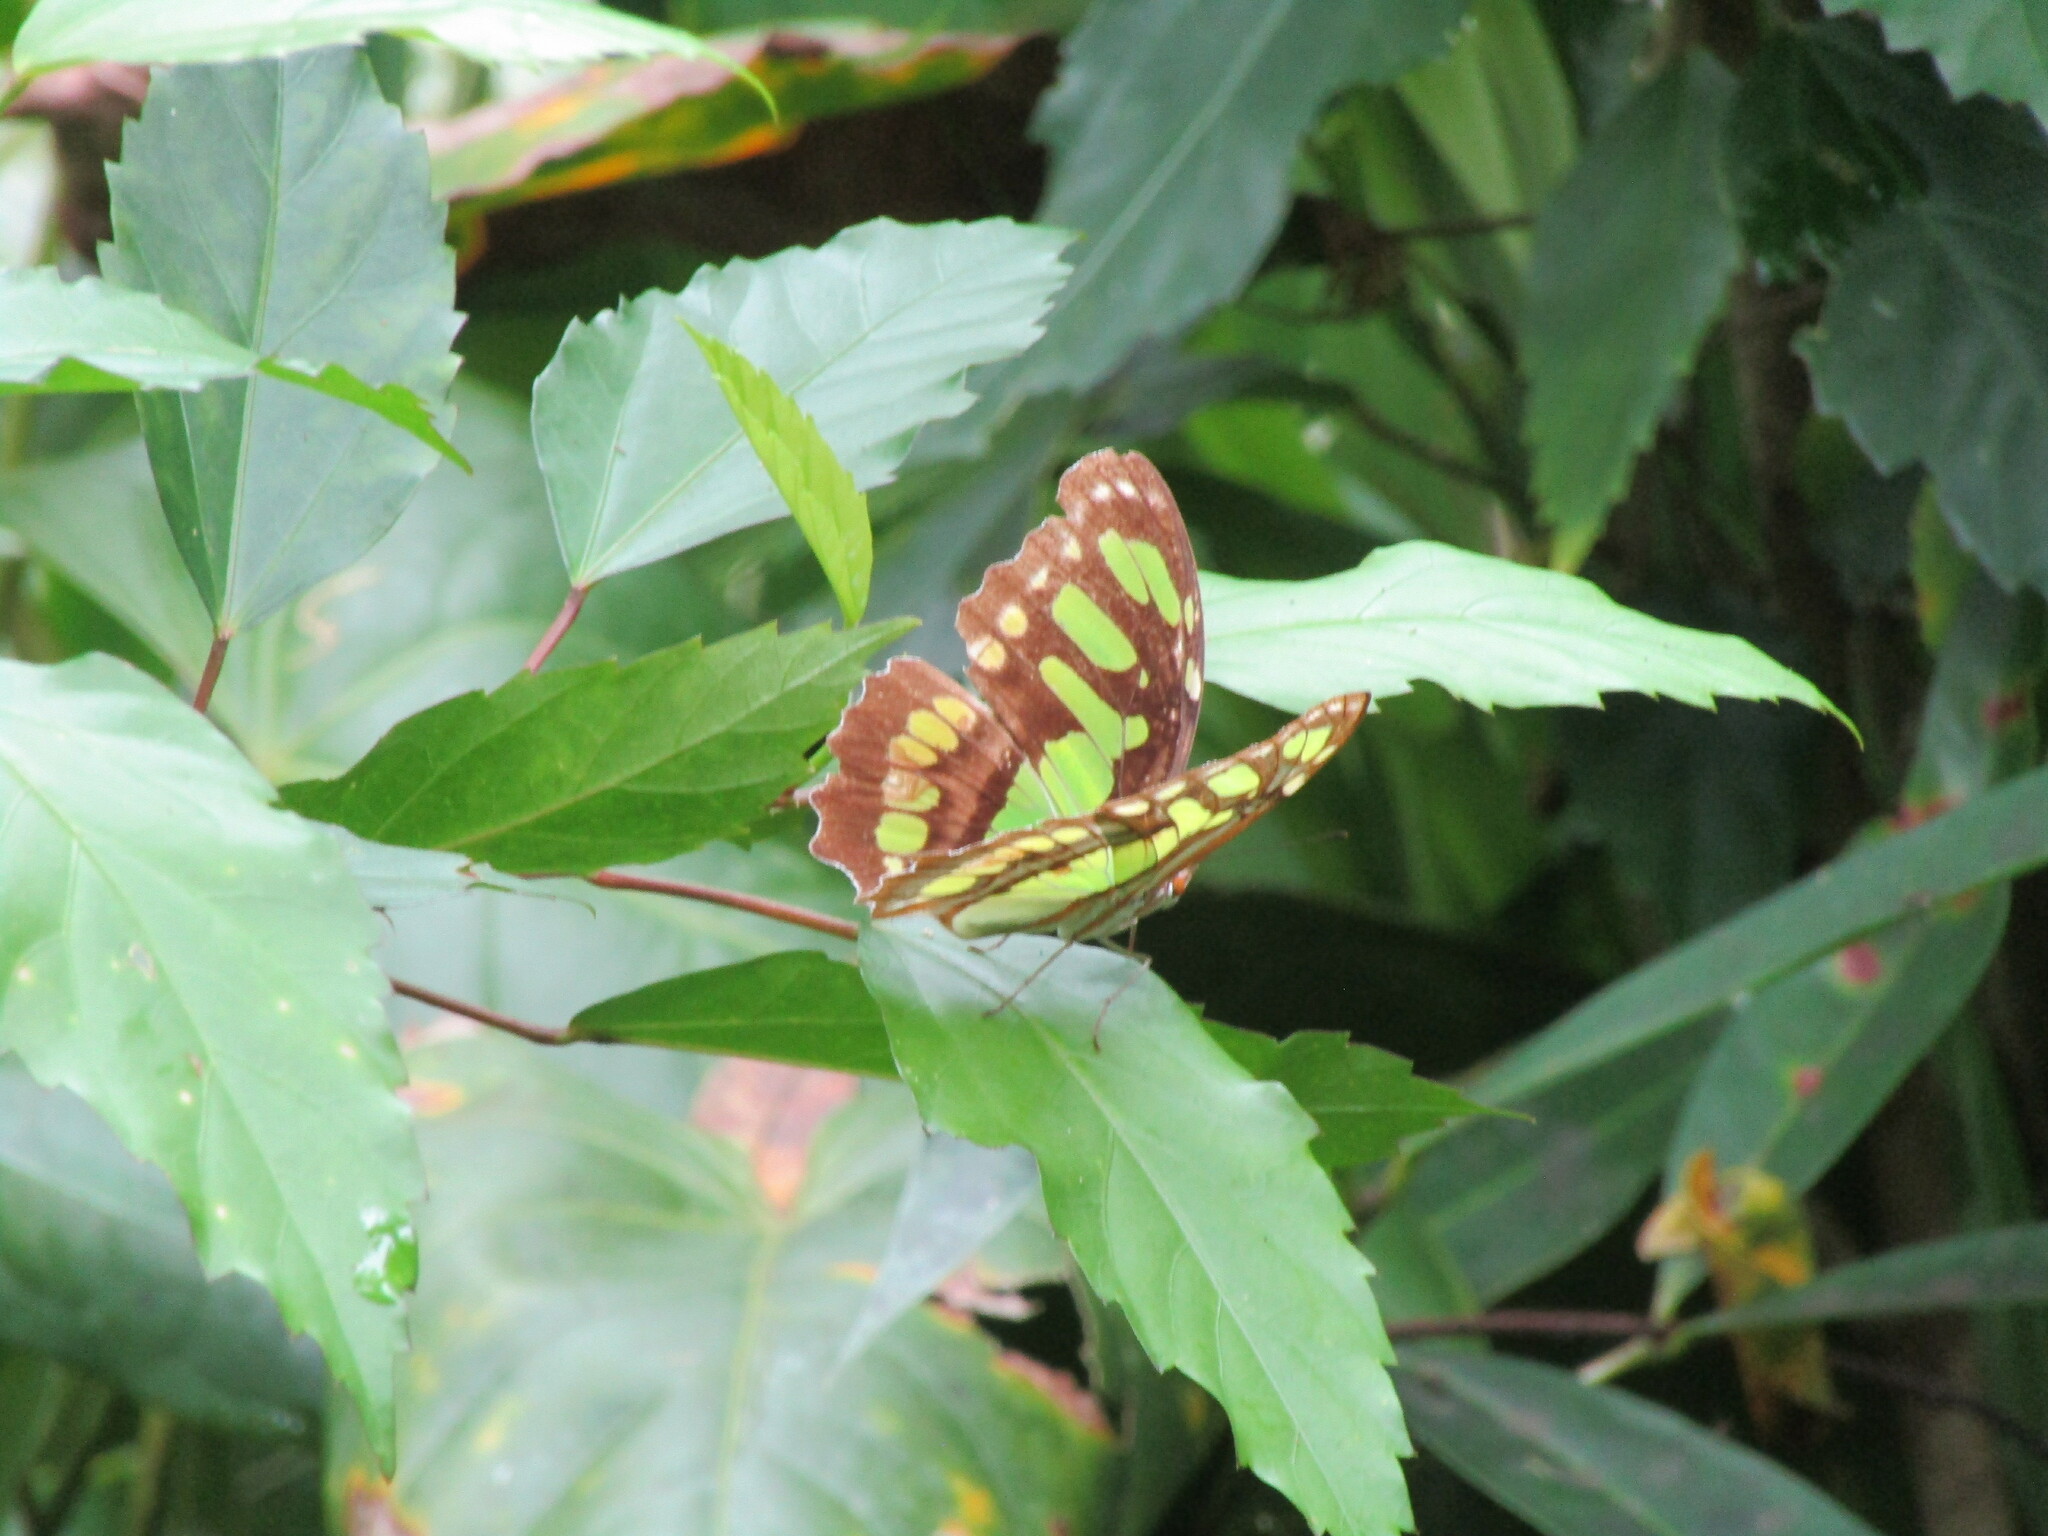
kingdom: Animalia
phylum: Arthropoda
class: Insecta
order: Lepidoptera
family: Nymphalidae
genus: Siproeta
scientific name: Siproeta stelenes
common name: Malachite
